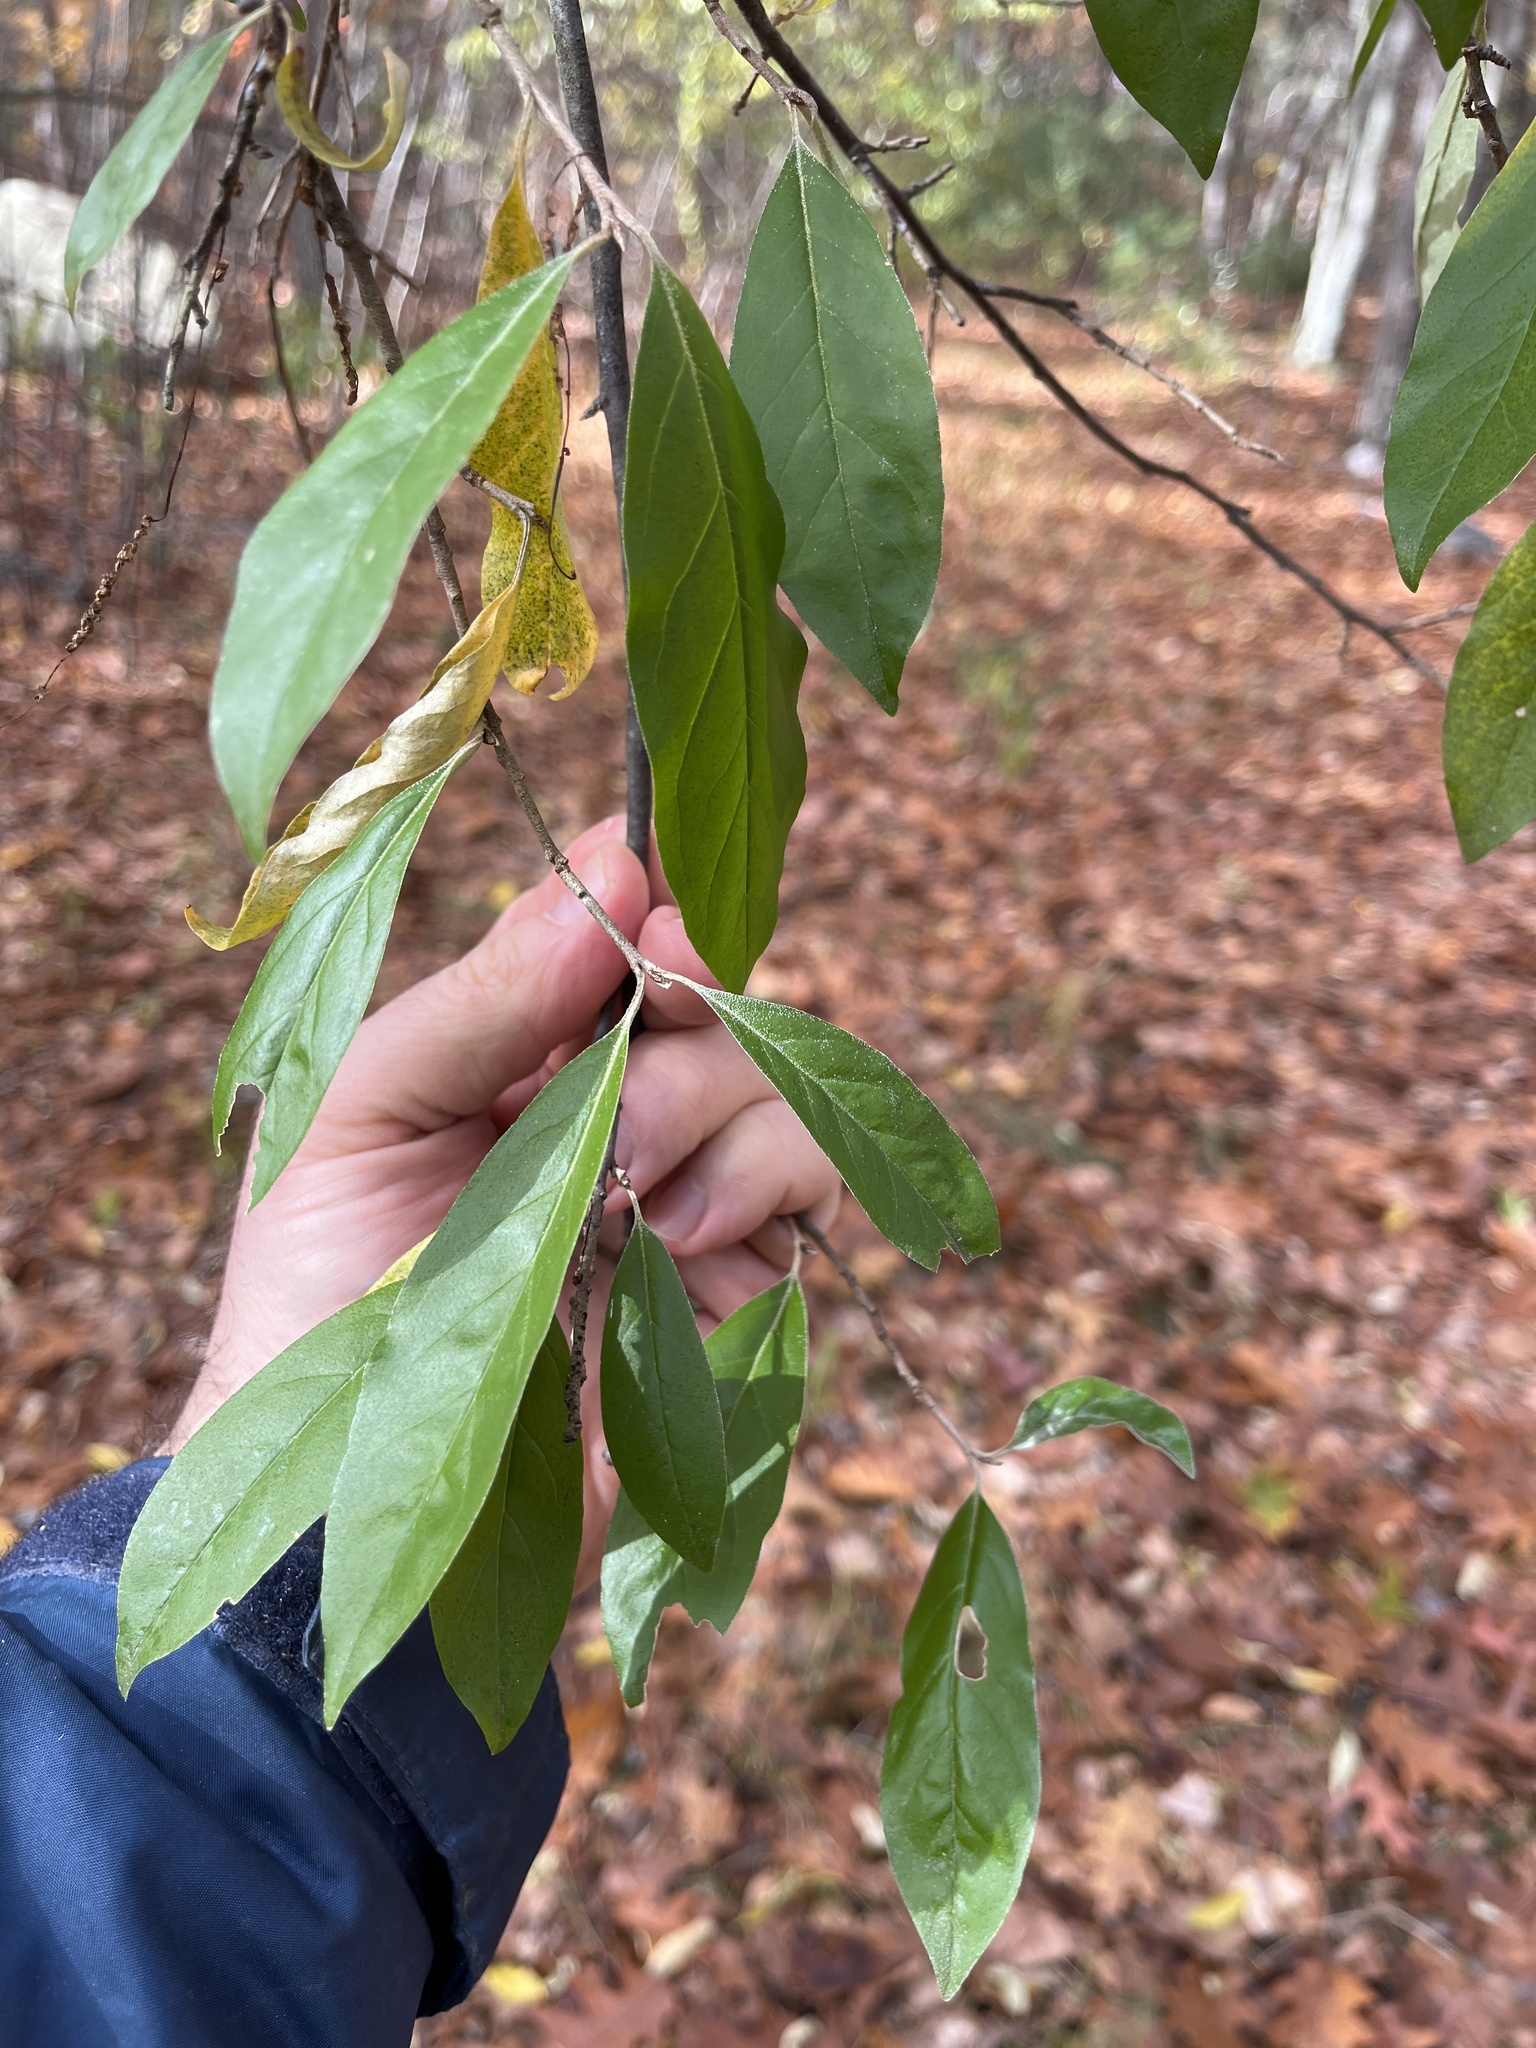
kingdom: Plantae
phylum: Tracheophyta
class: Magnoliopsida
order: Rosales
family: Elaeagnaceae
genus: Elaeagnus
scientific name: Elaeagnus umbellata
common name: Autumn olive
